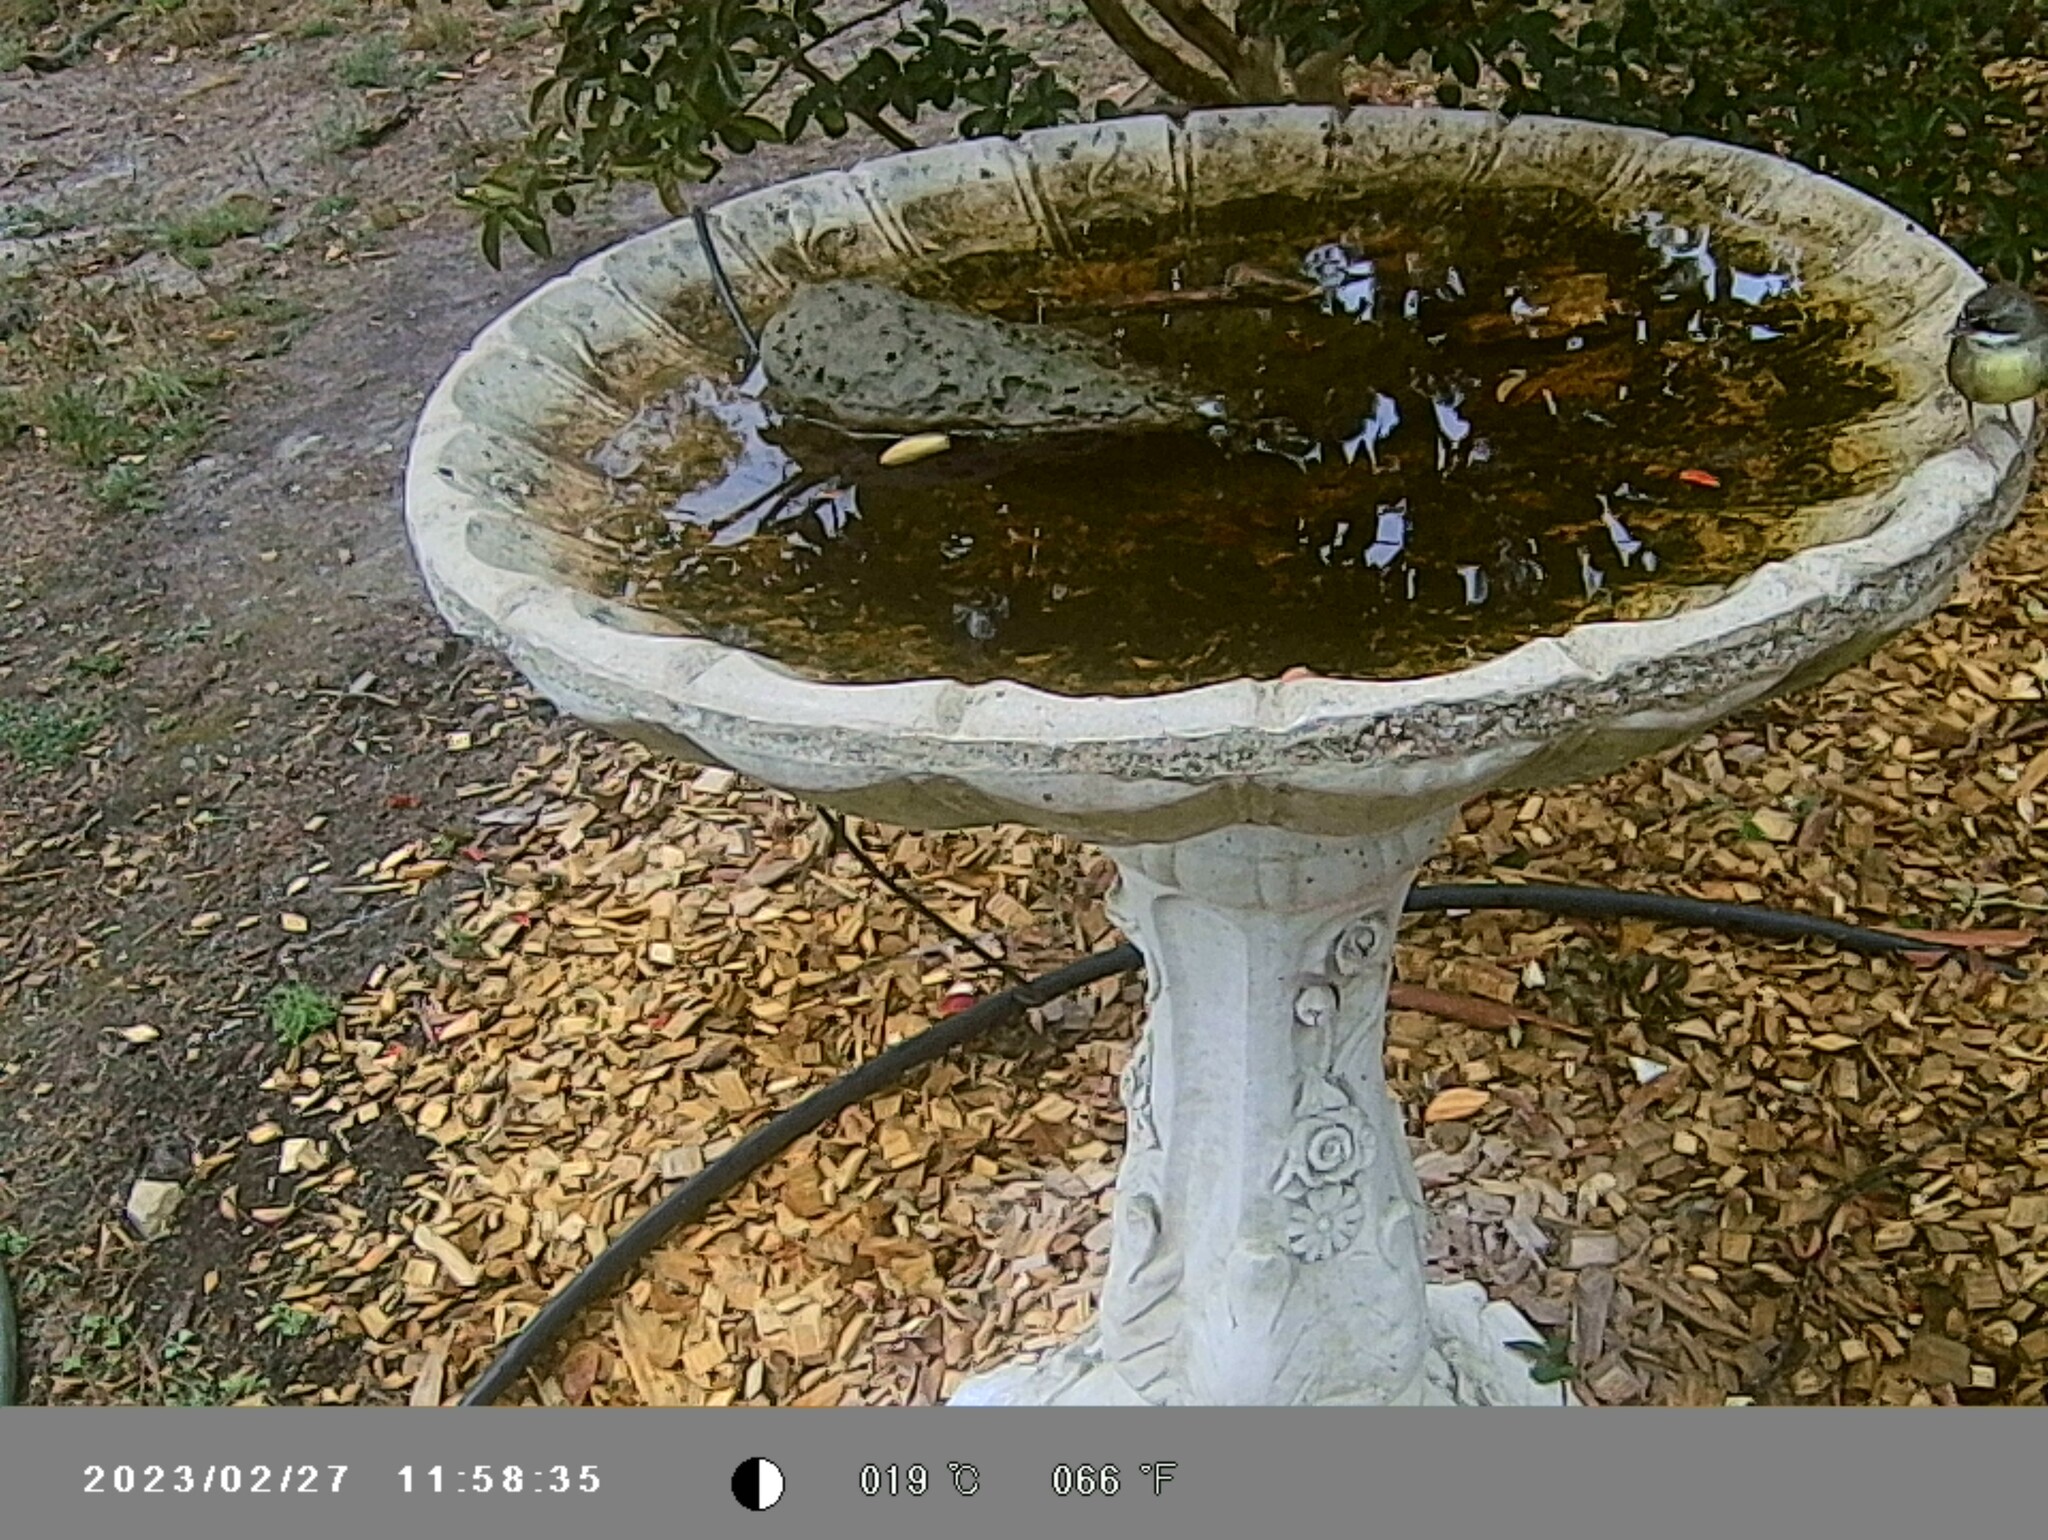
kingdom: Animalia
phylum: Chordata
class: Aves
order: Passeriformes
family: Acanthizidae
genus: Sericornis
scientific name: Sericornis frontalis
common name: White-browed scrubwren
